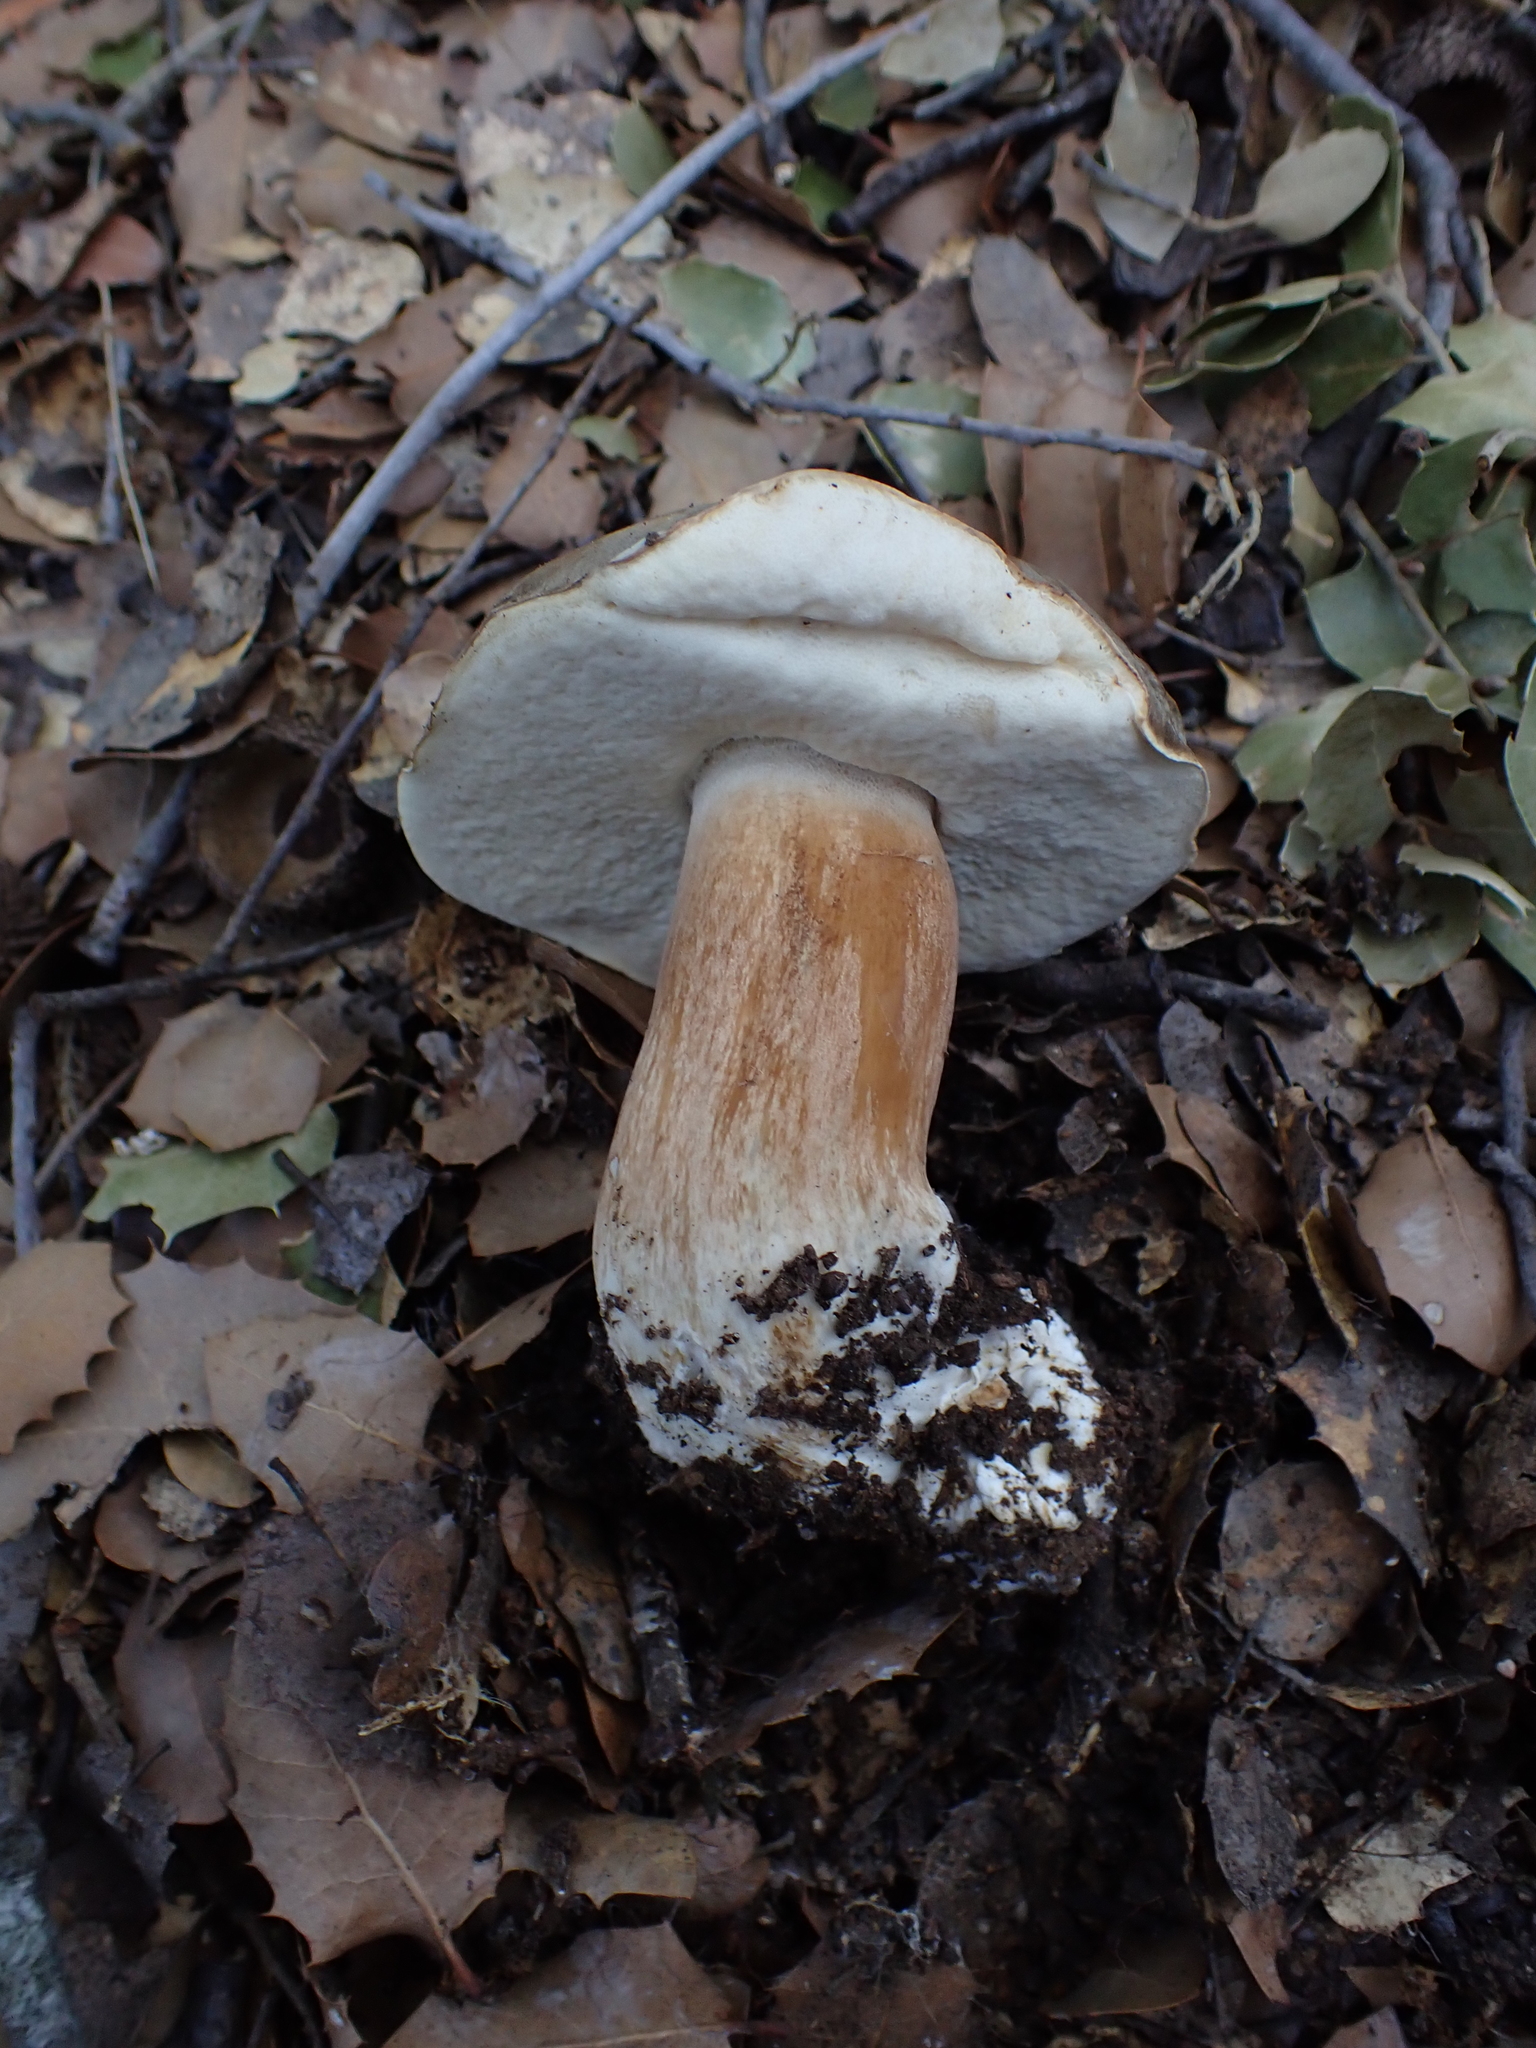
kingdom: Fungi
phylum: Basidiomycota
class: Agaricomycetes
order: Boletales
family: Boletaceae
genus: Boletus
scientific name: Boletus aereus
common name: Bronze bolete
